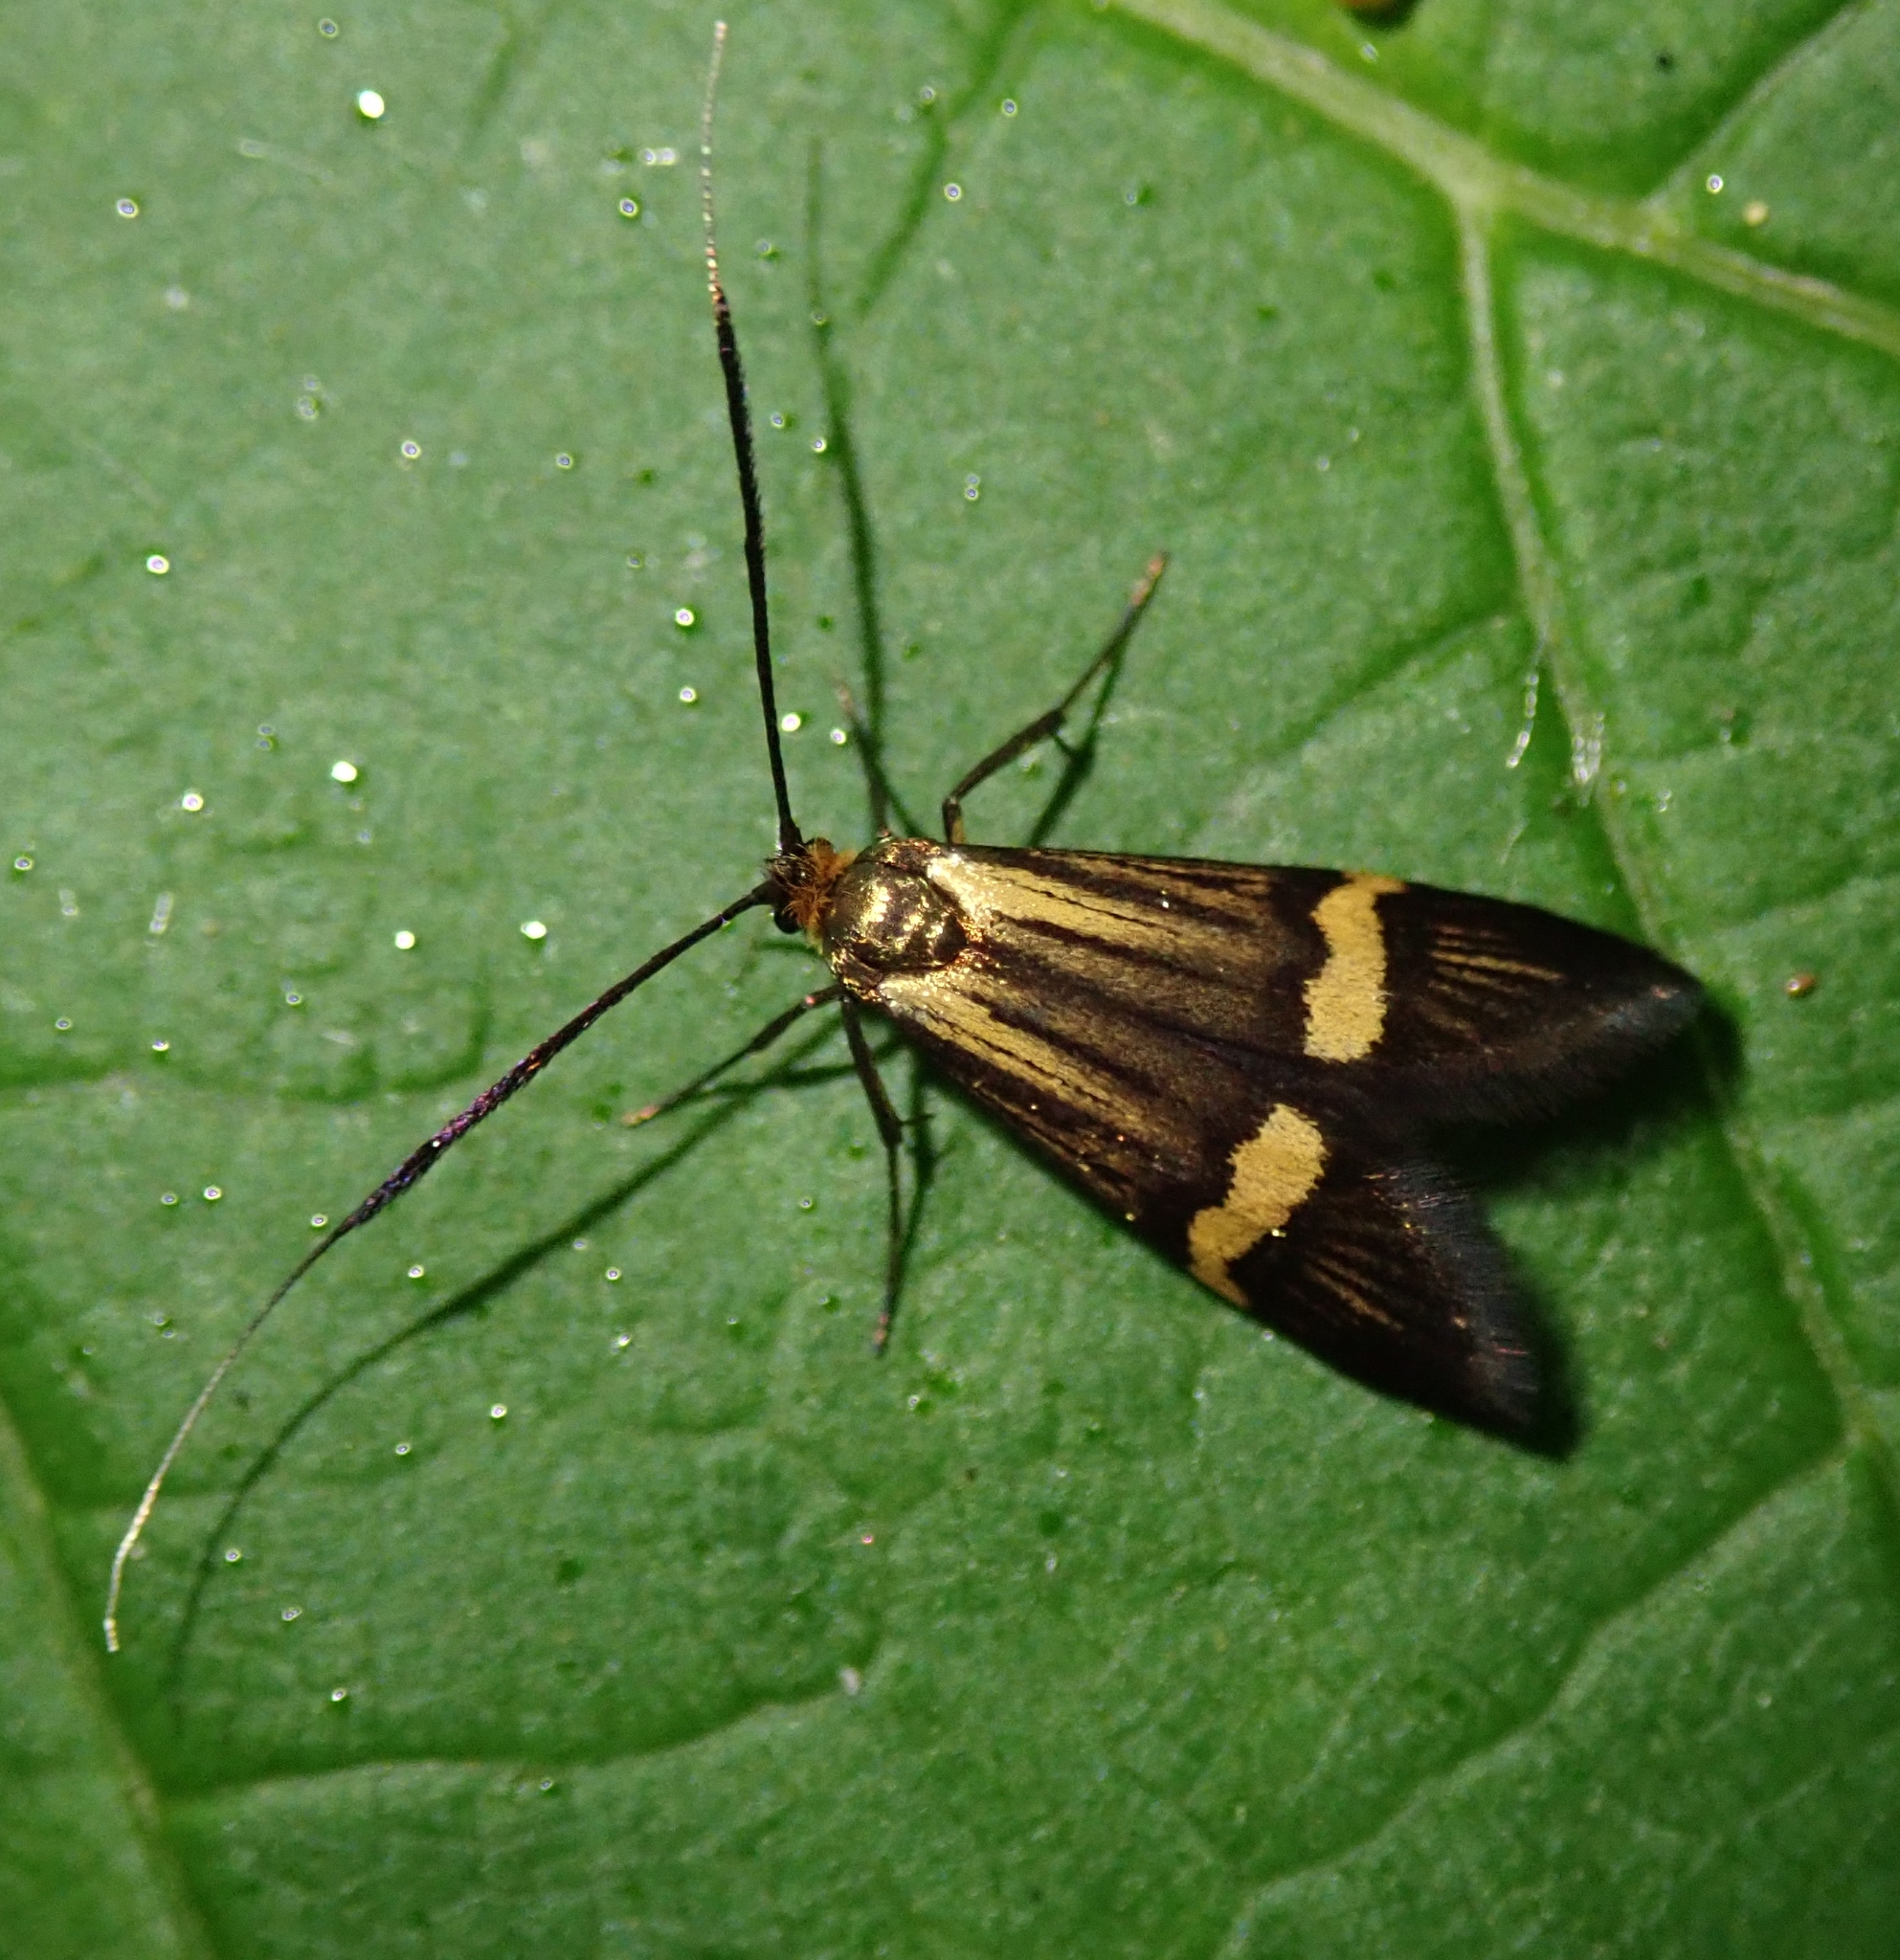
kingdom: Animalia
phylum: Arthropoda
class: Insecta
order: Lepidoptera
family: Adelidae
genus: Nemophora
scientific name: Nemophora degeerella
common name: Yellow-barred long-horn
